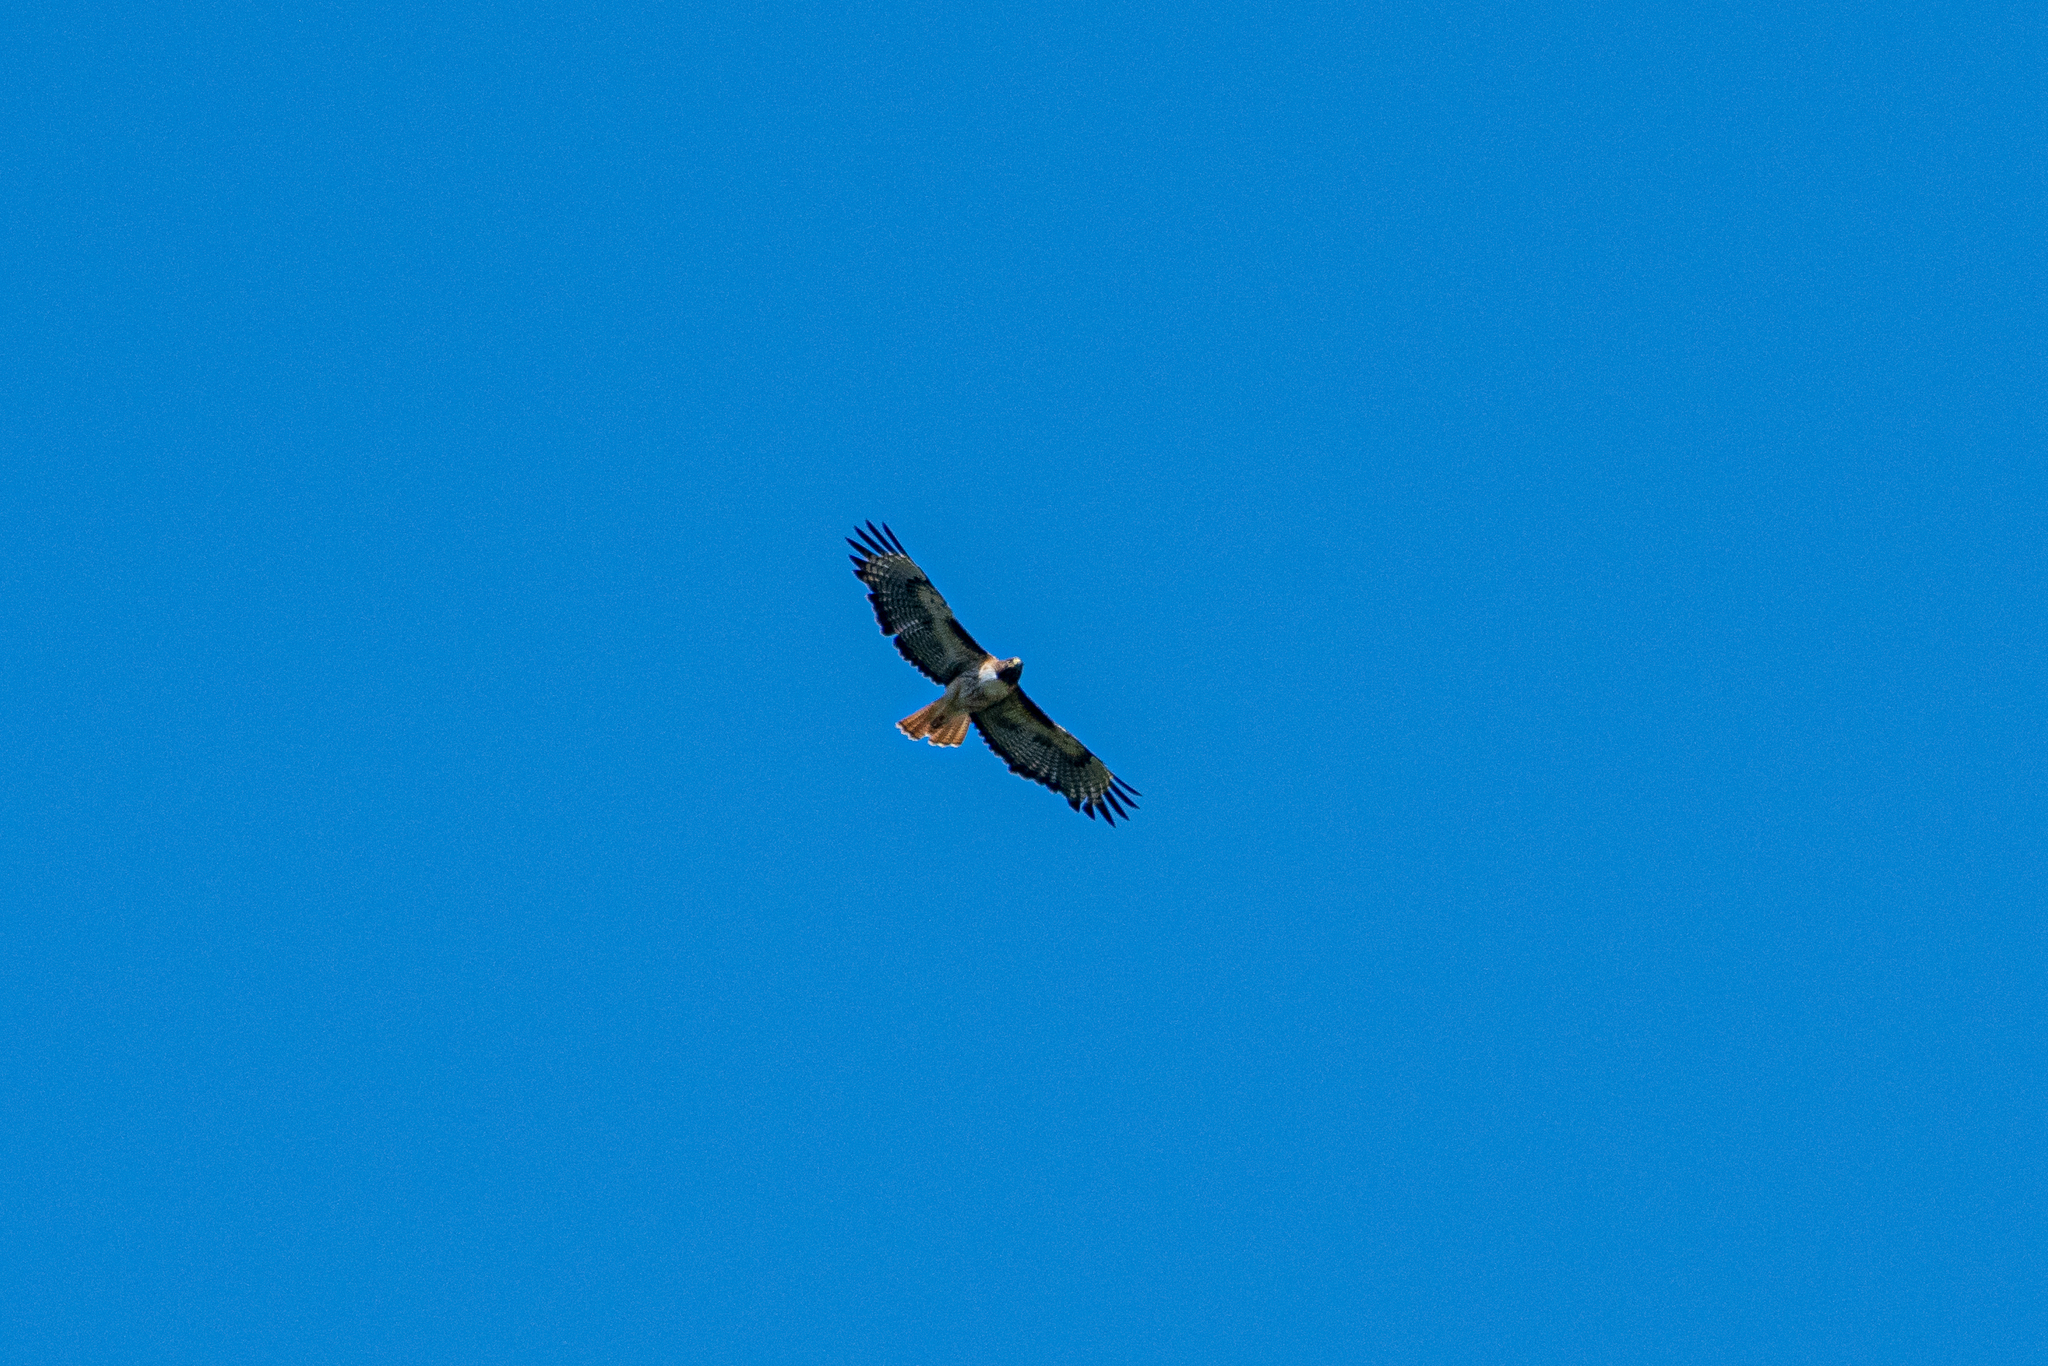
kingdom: Animalia
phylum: Chordata
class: Aves
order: Accipitriformes
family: Accipitridae
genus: Buteo
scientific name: Buteo jamaicensis
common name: Red-tailed hawk
